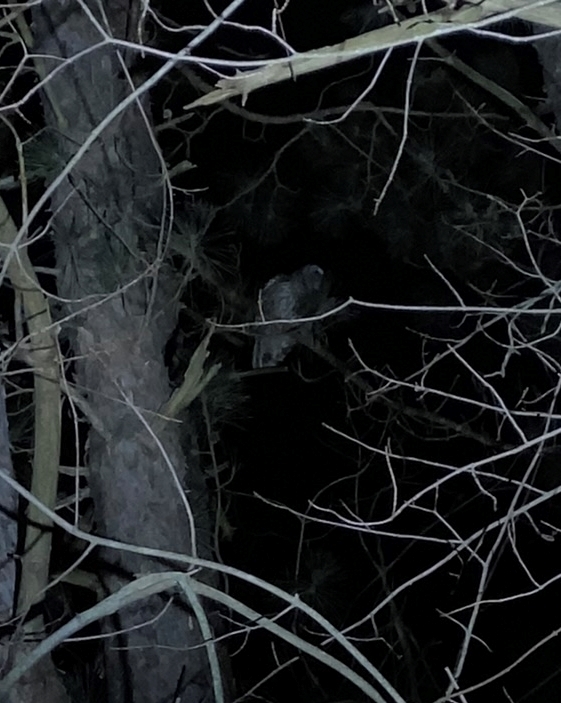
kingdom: Animalia
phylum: Chordata
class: Aves
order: Strigiformes
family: Strigidae
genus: Strix
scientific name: Strix varia
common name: Barred owl
